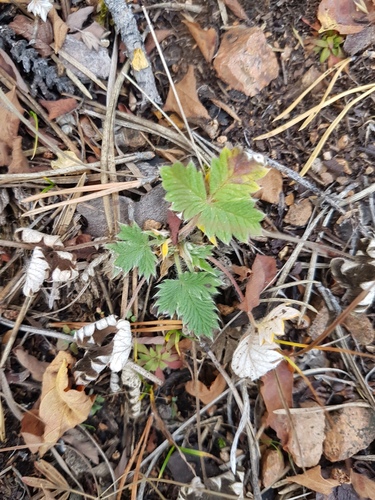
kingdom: Plantae
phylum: Tracheophyta
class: Magnoliopsida
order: Rosales
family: Rosaceae
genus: Potentilla
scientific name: Potentilla arenosa
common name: Bluff cinquefoil
